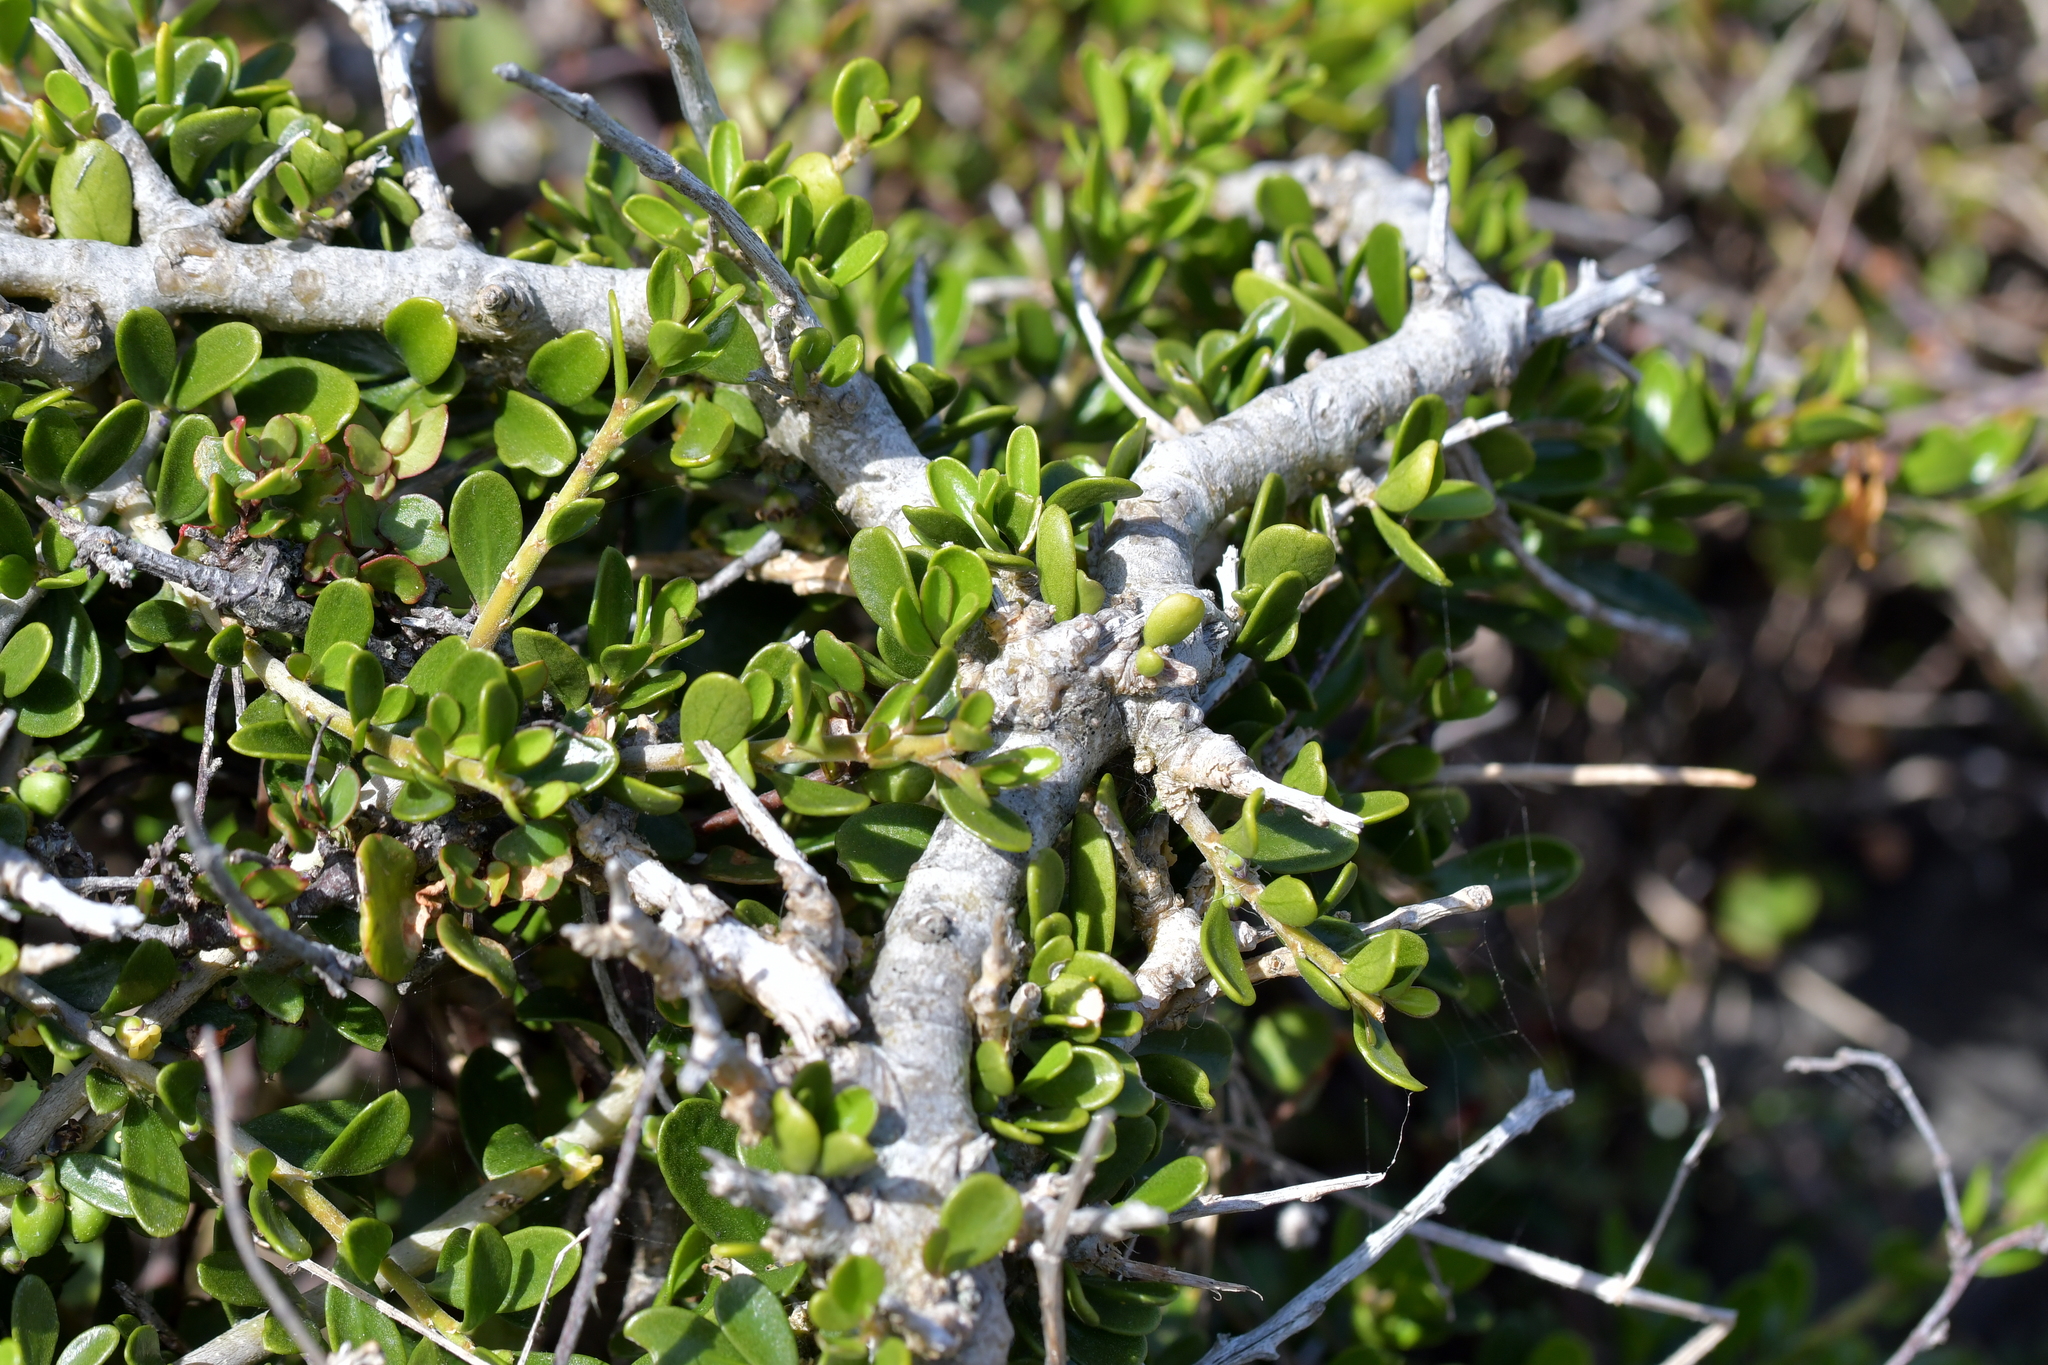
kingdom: Plantae
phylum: Tracheophyta
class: Magnoliopsida
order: Malpighiales
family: Violaceae
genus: Melicytus
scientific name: Melicytus crassifolius
